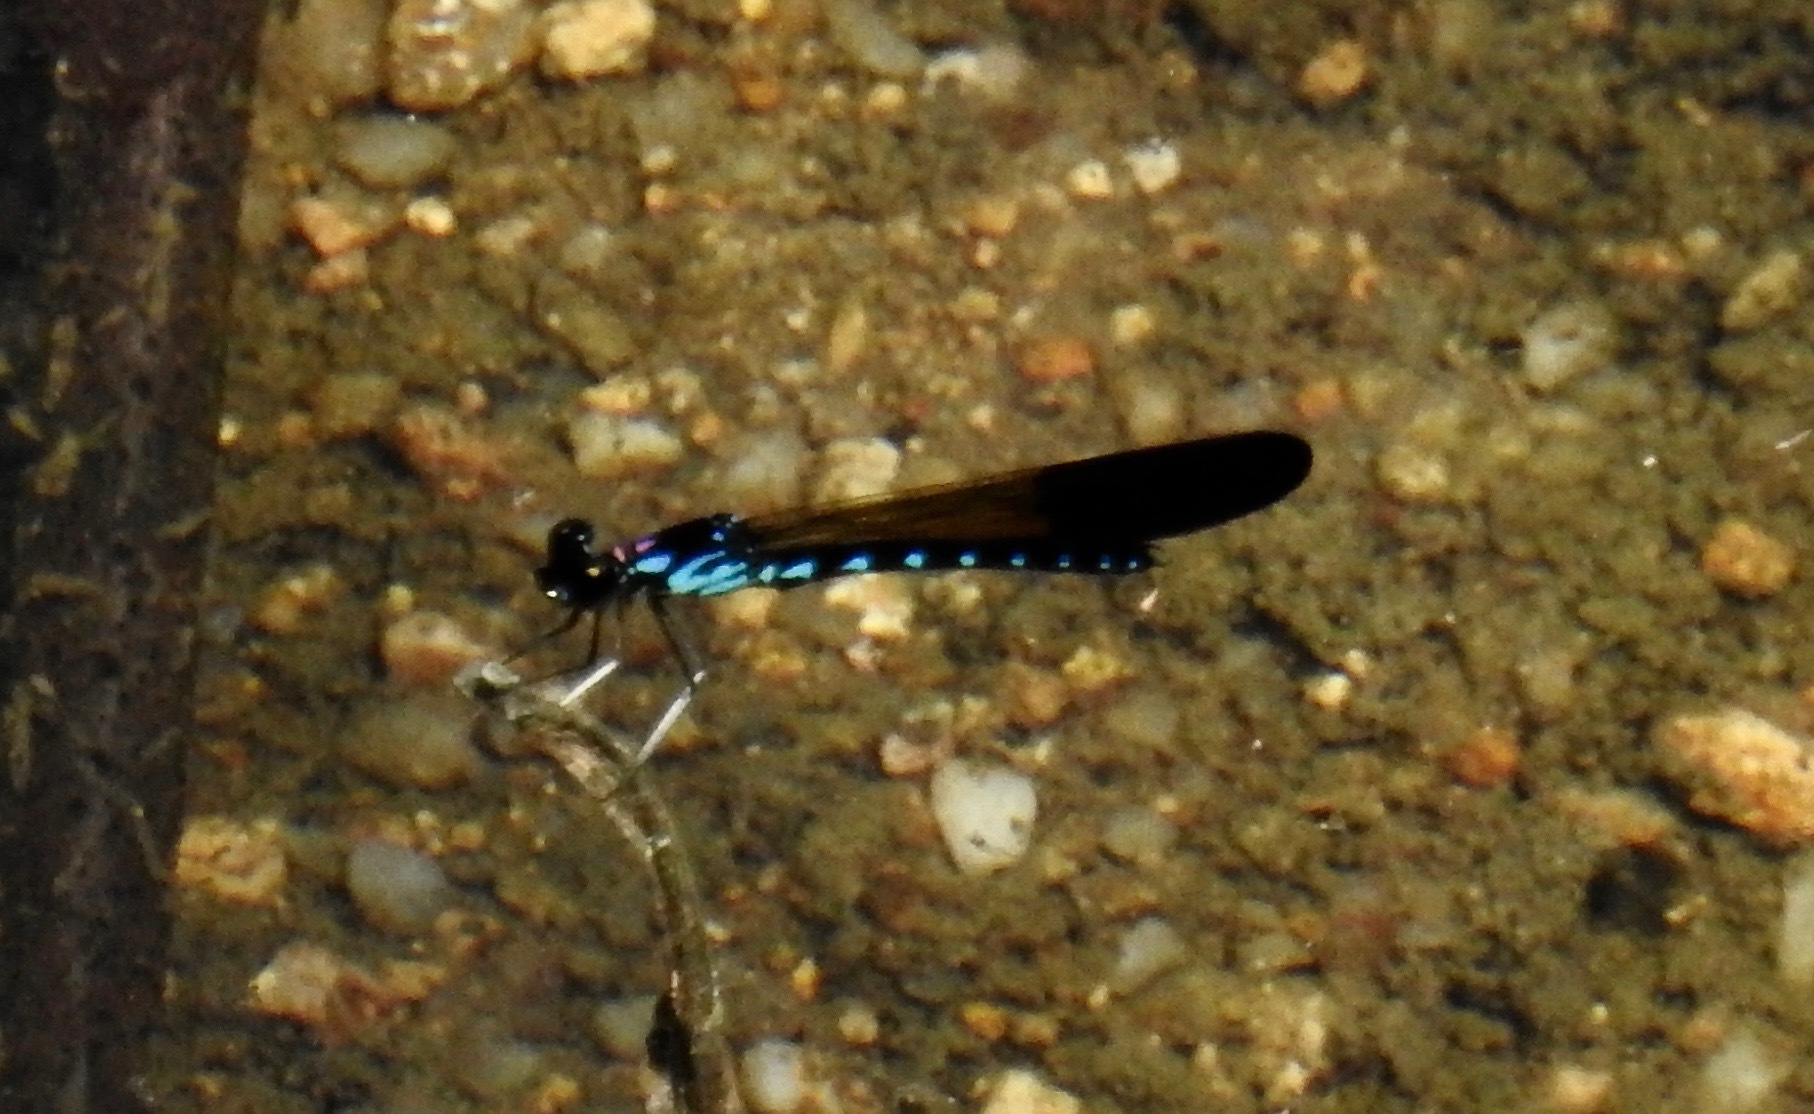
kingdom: Animalia
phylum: Arthropoda
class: Insecta
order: Odonata
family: Chlorocyphidae
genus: Heliocypha
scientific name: Heliocypha perforata
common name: Common blue jewel
